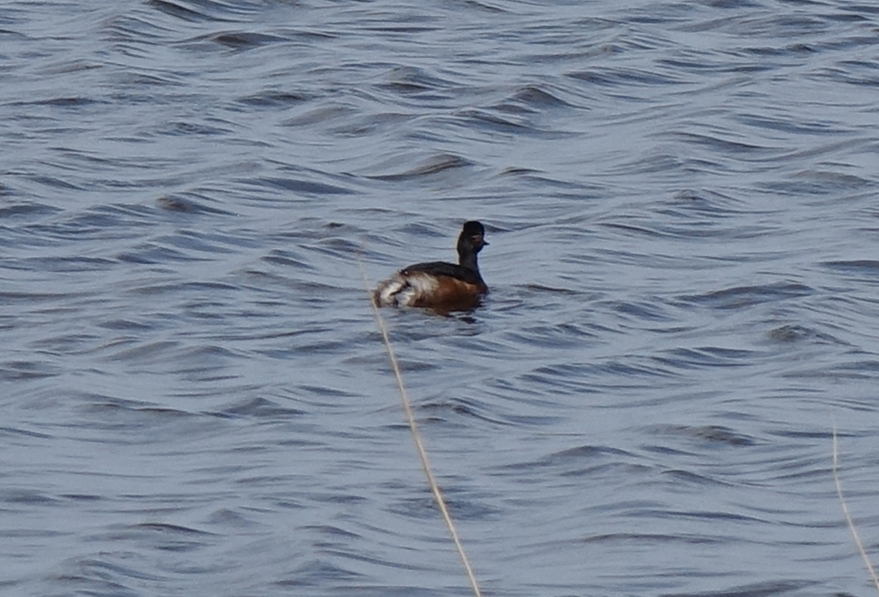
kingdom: Animalia
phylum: Chordata
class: Aves
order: Podicipediformes
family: Podicipedidae
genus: Podiceps
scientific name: Podiceps nigricollis
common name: Black-necked grebe
